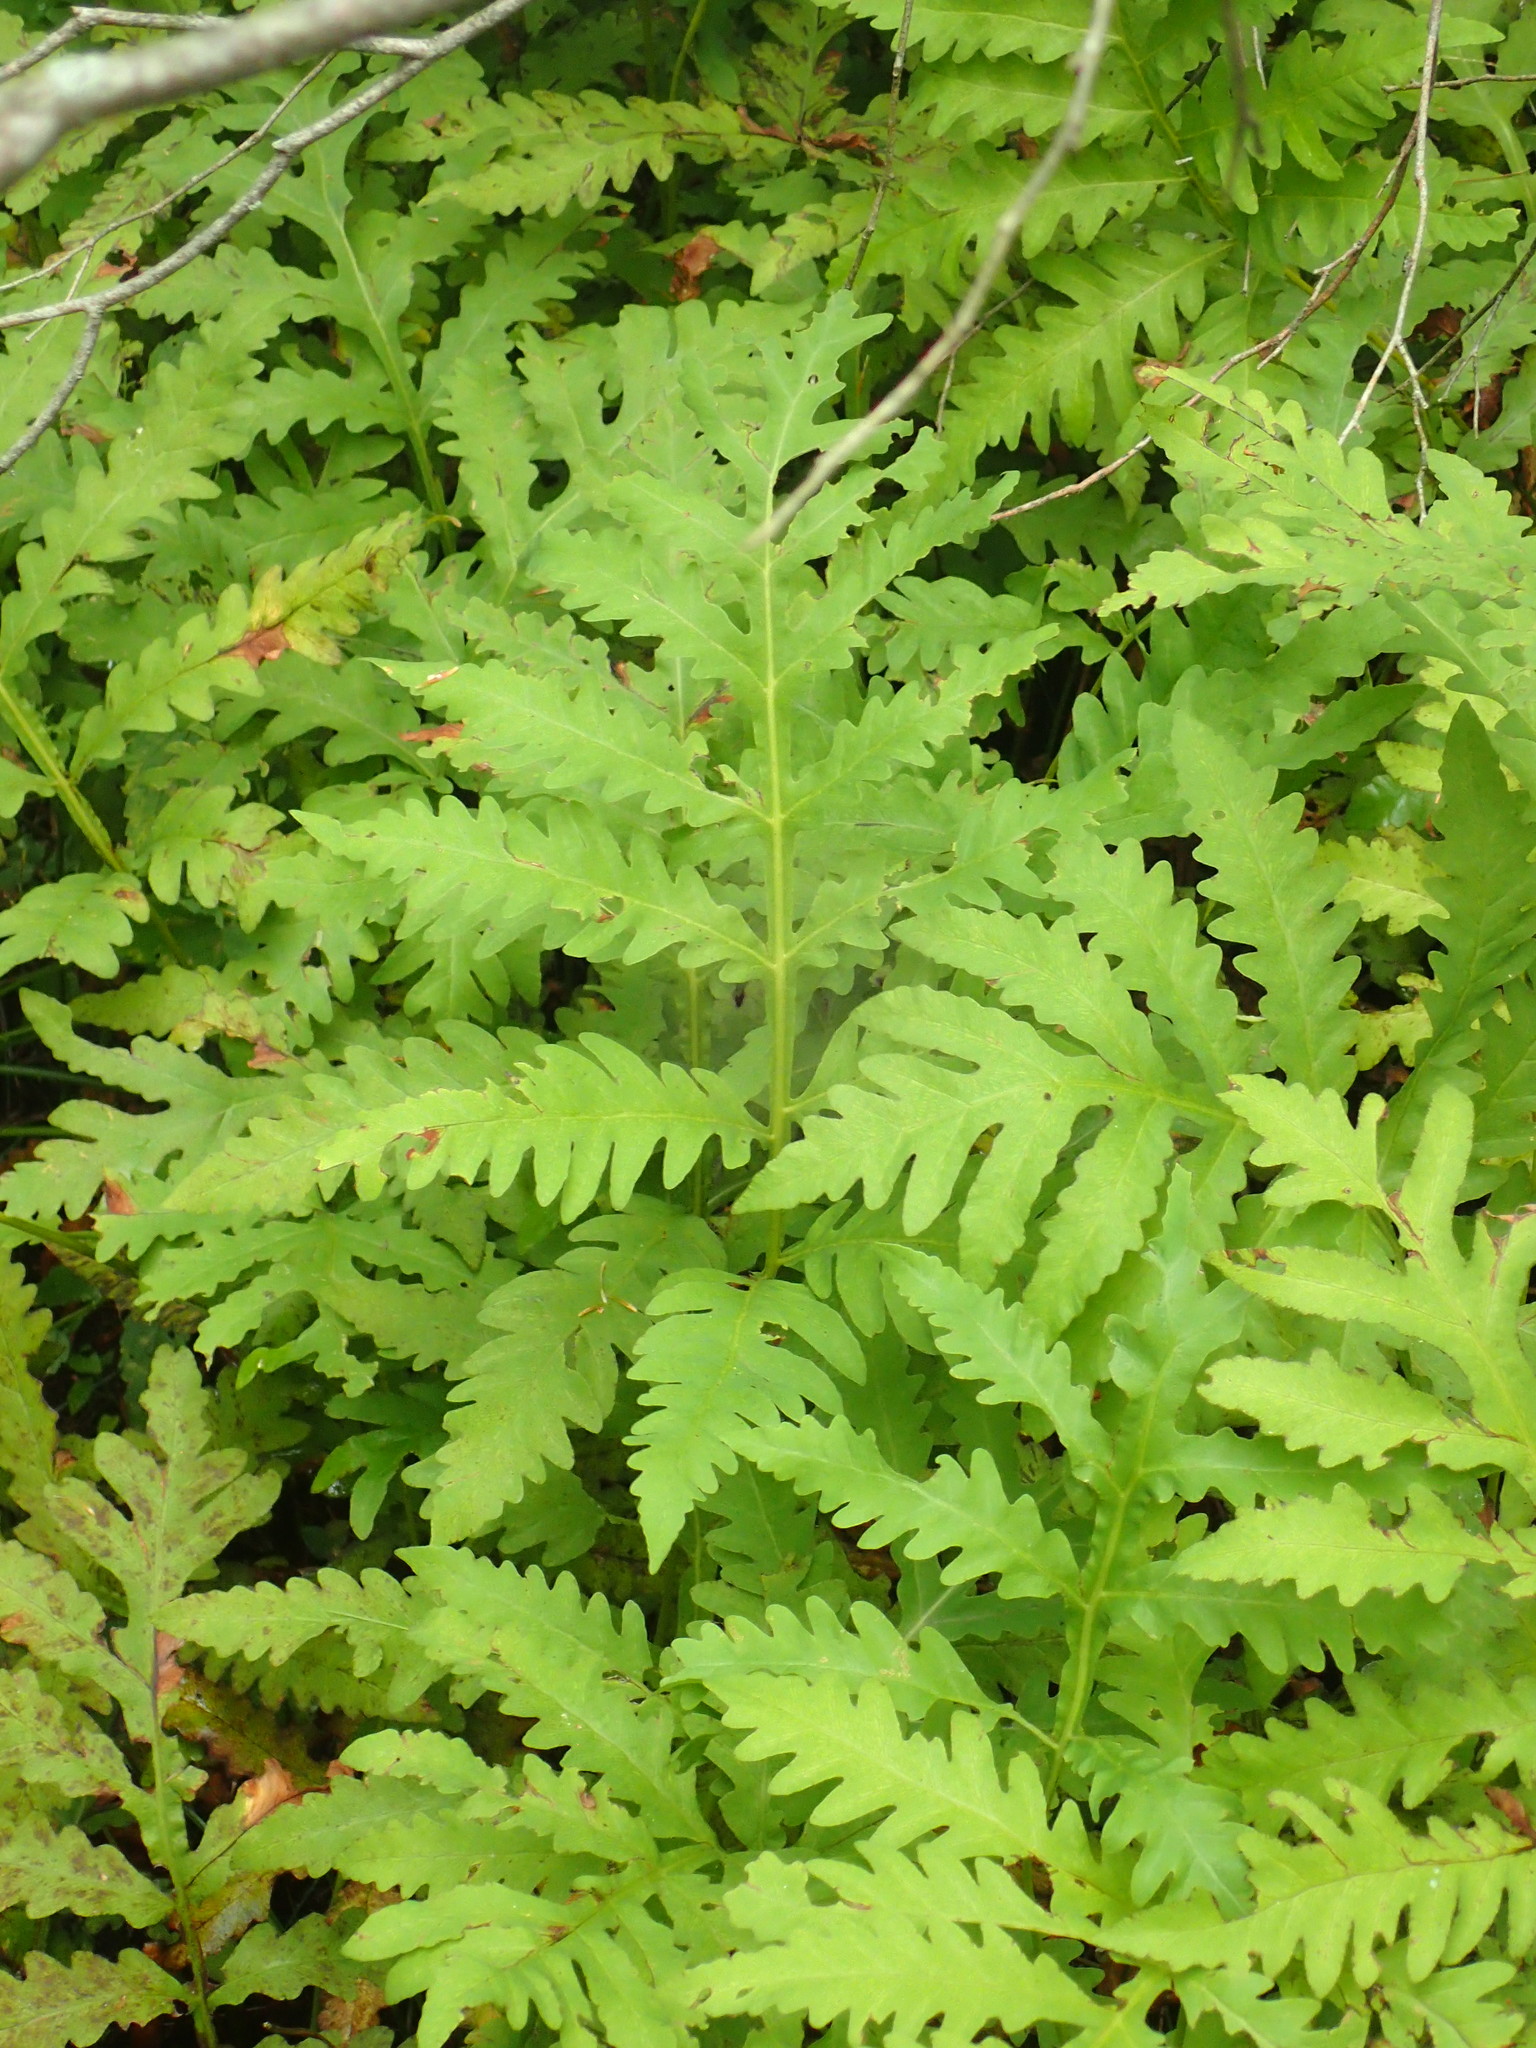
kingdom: Plantae
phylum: Tracheophyta
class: Polypodiopsida
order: Polypodiales
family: Onocleaceae
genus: Onoclea
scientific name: Onoclea sensibilis
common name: Sensitive fern
